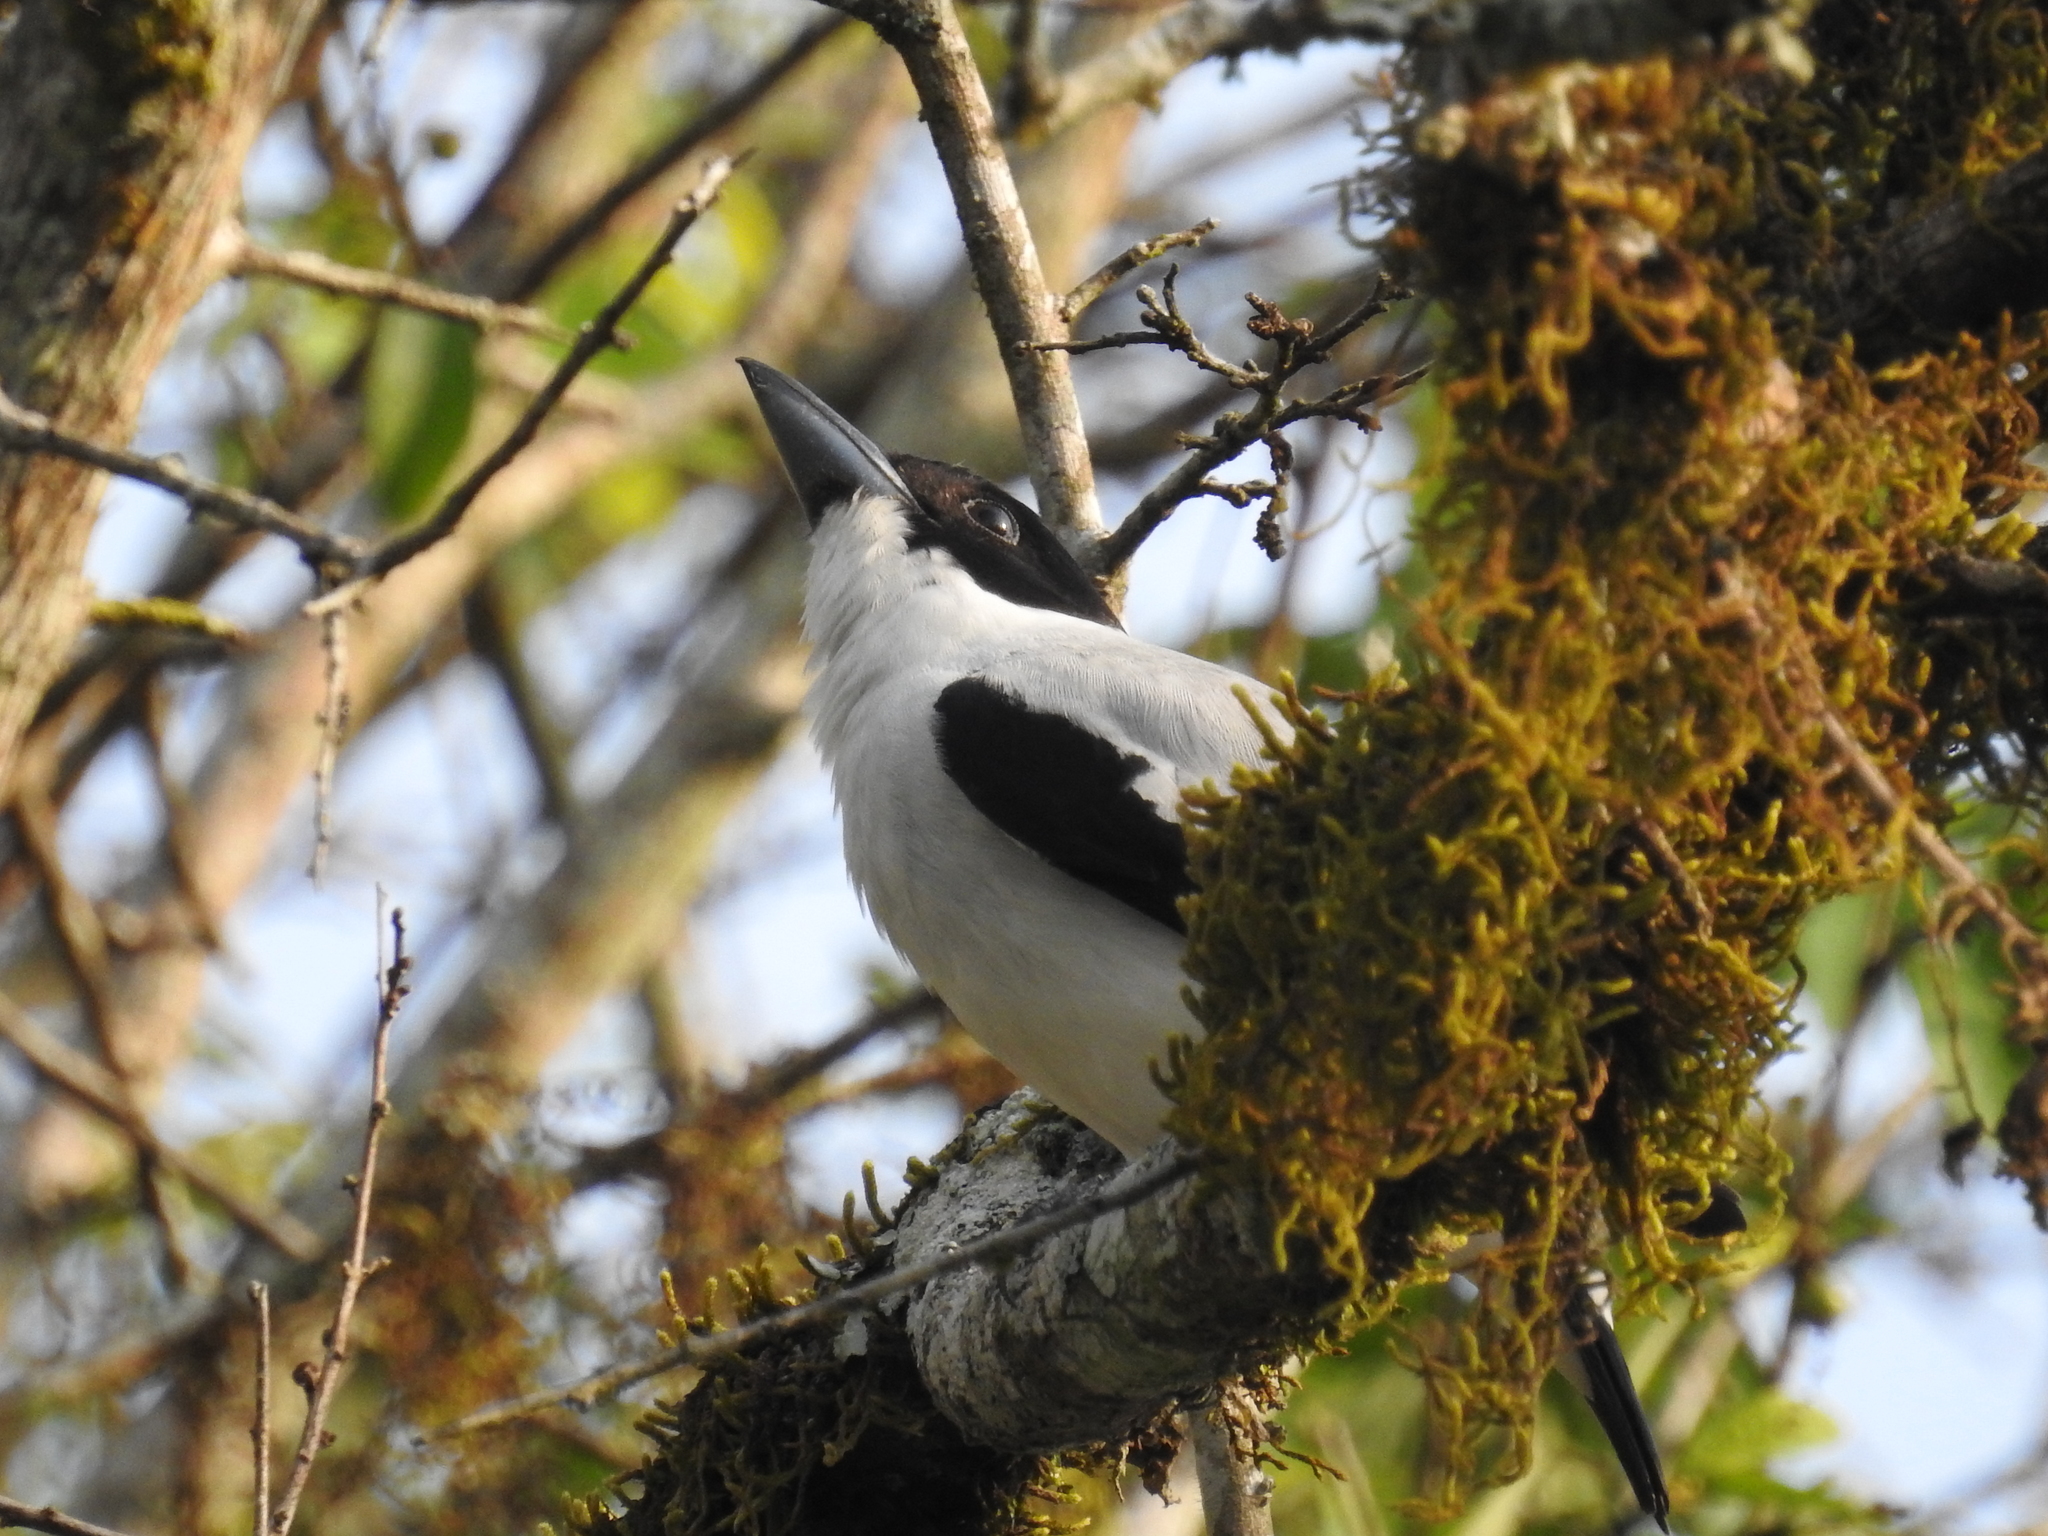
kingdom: Animalia
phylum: Chordata
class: Aves
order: Passeriformes
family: Cotingidae
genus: Tityra
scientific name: Tityra inquisitor
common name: Black-crowned tityra
